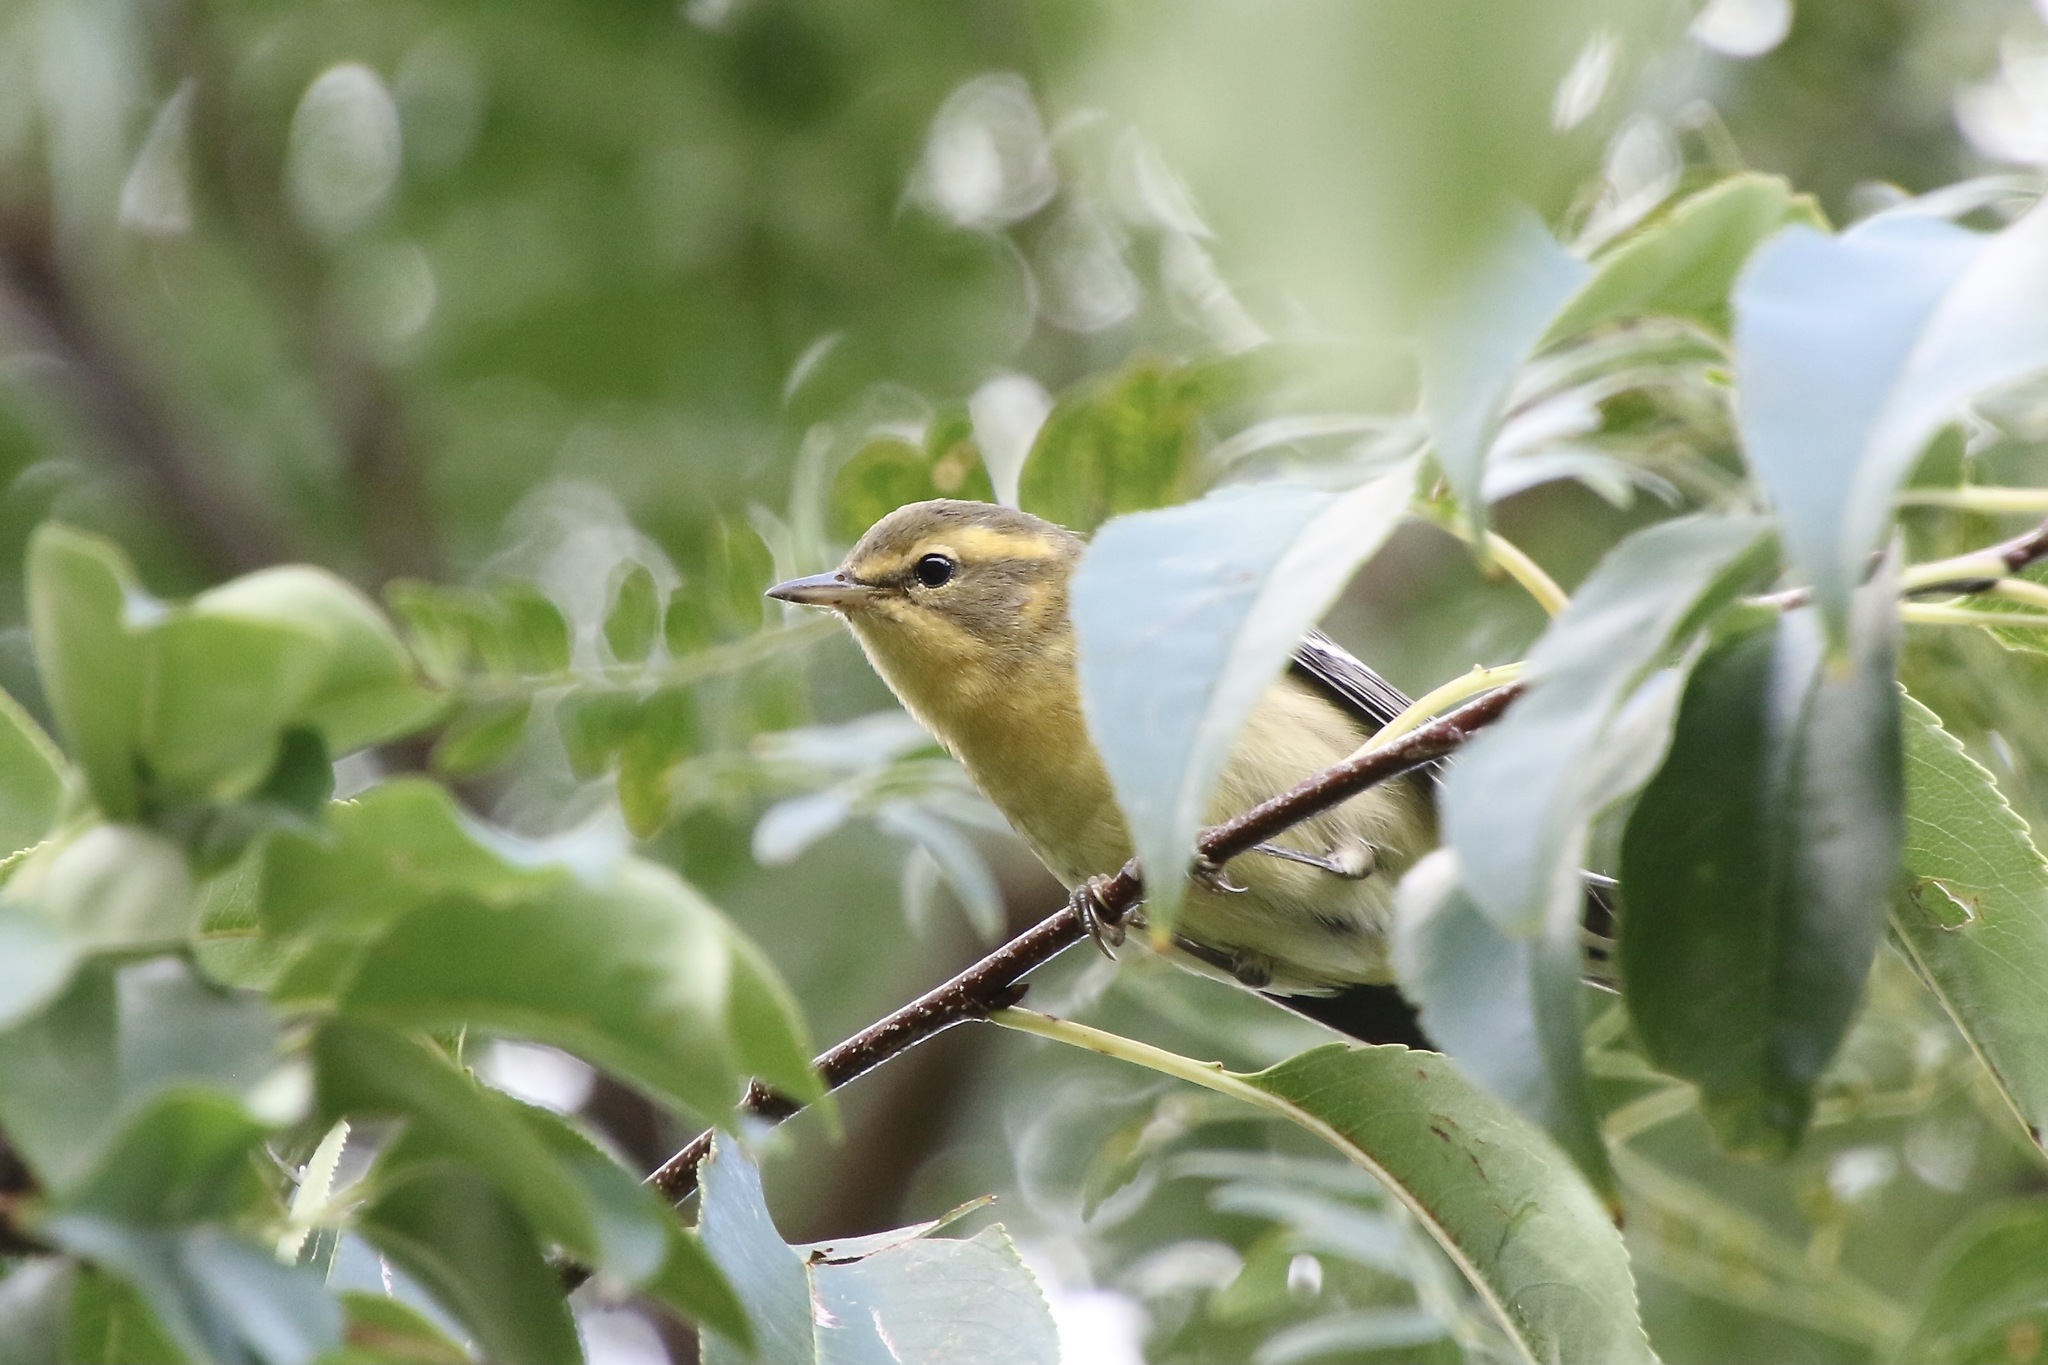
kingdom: Animalia
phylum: Chordata
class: Aves
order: Passeriformes
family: Parulidae
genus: Setophaga
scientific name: Setophaga fusca
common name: Blackburnian warbler
